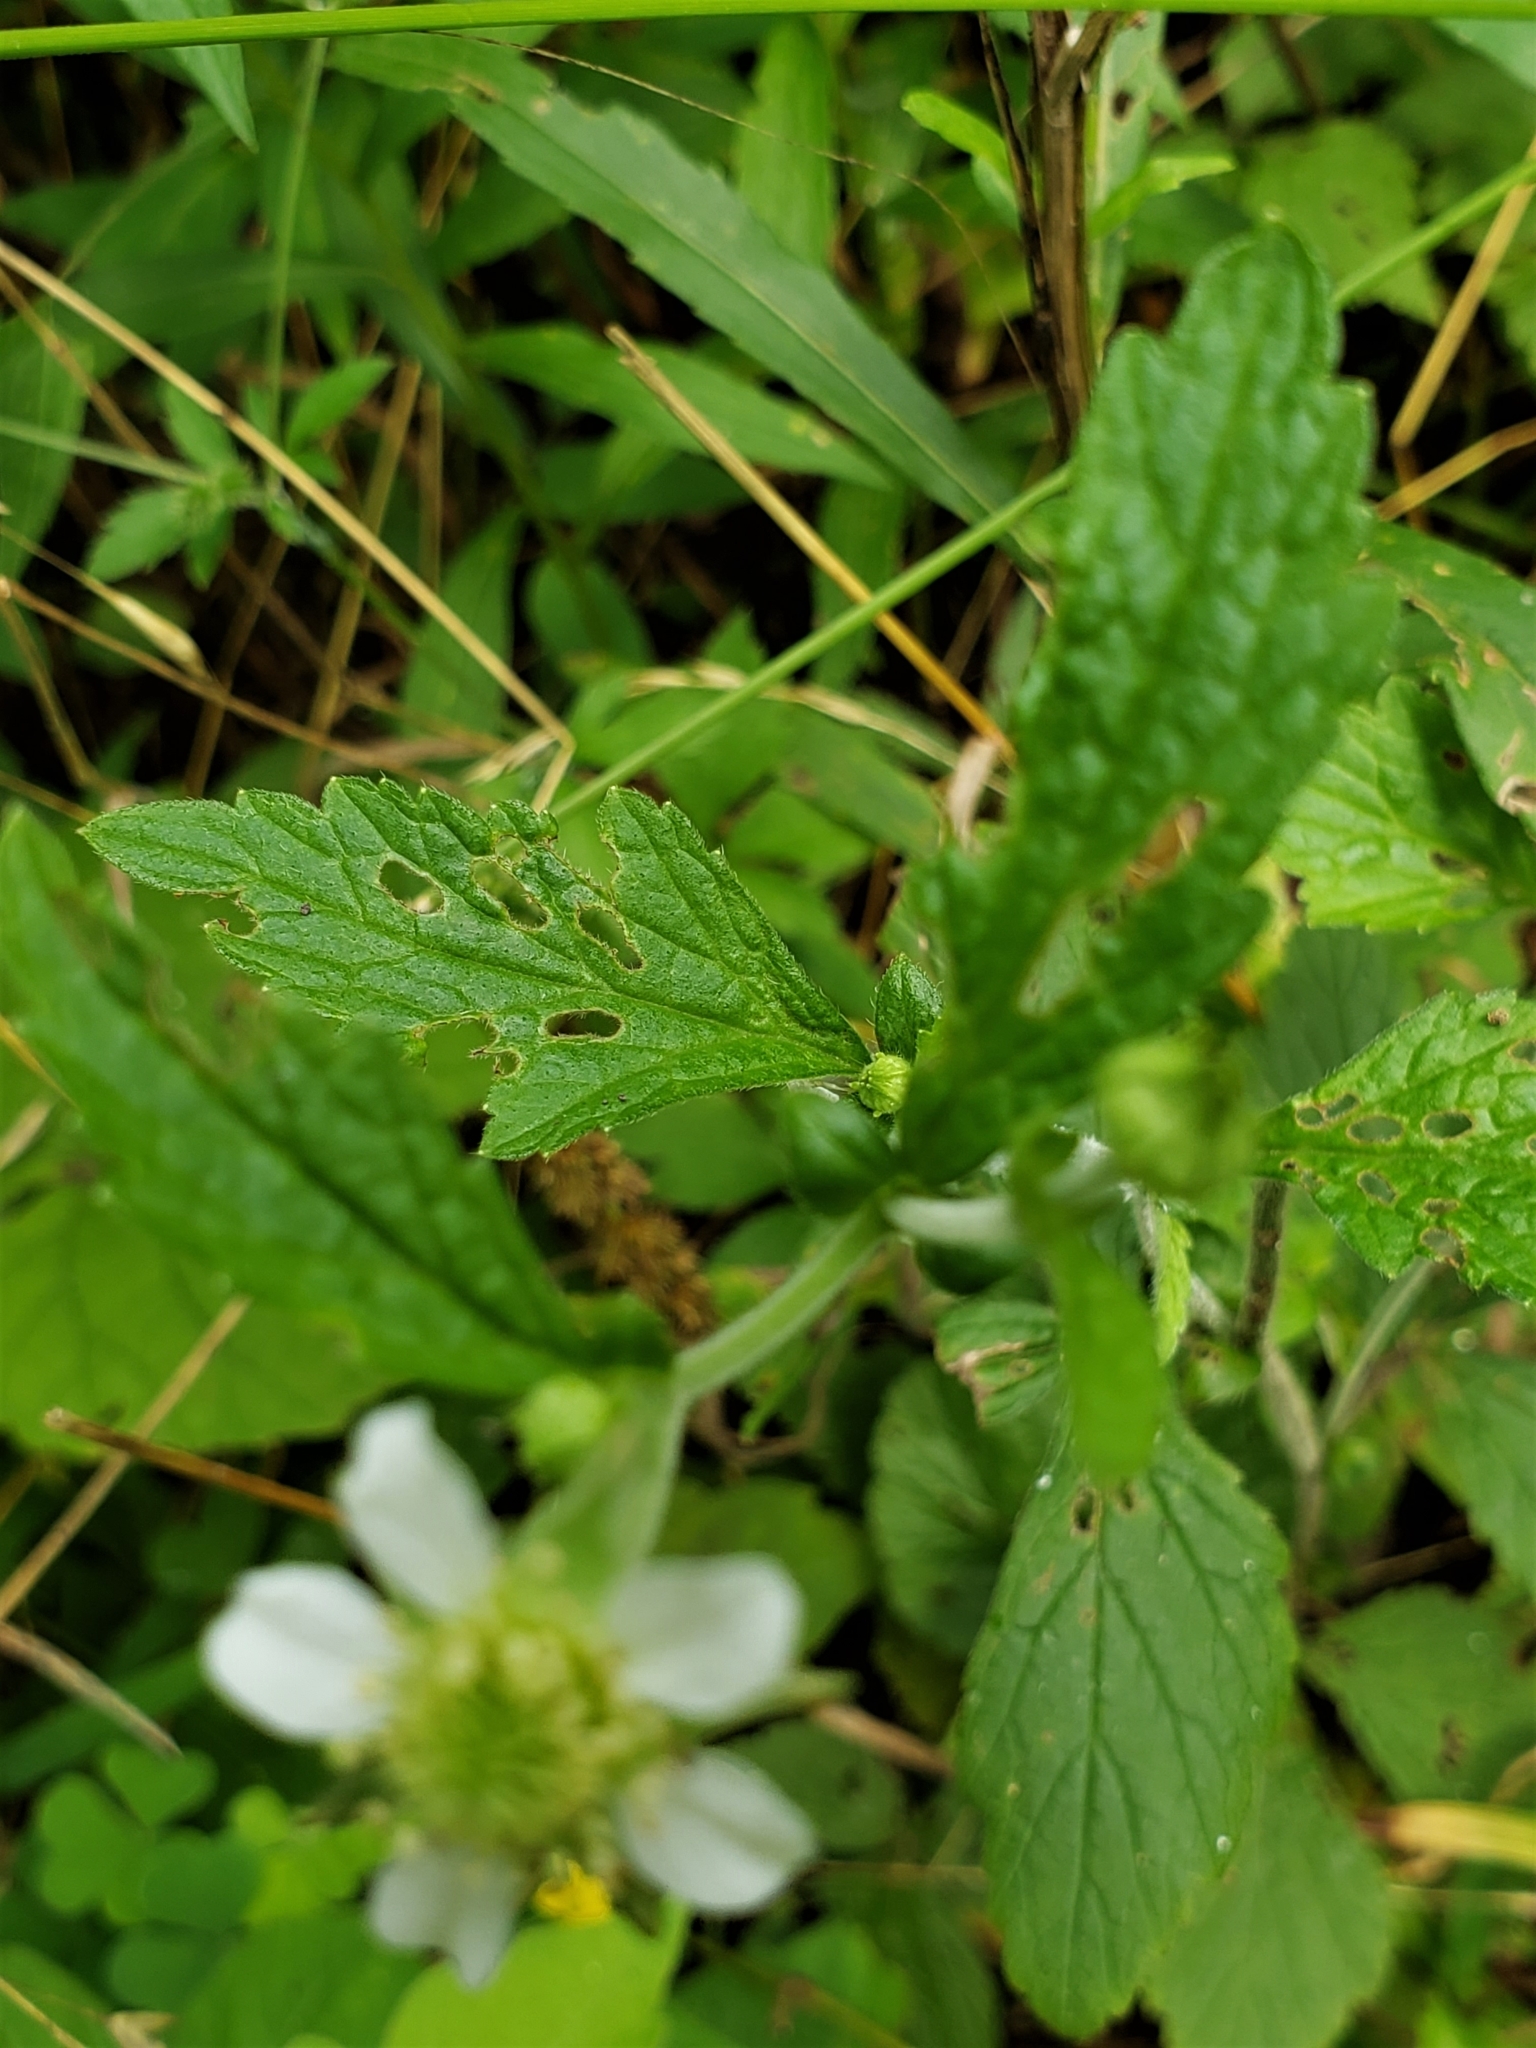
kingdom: Plantae
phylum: Tracheophyta
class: Magnoliopsida
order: Rosales
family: Rosaceae
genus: Geum
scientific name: Geum canadense
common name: White avens
